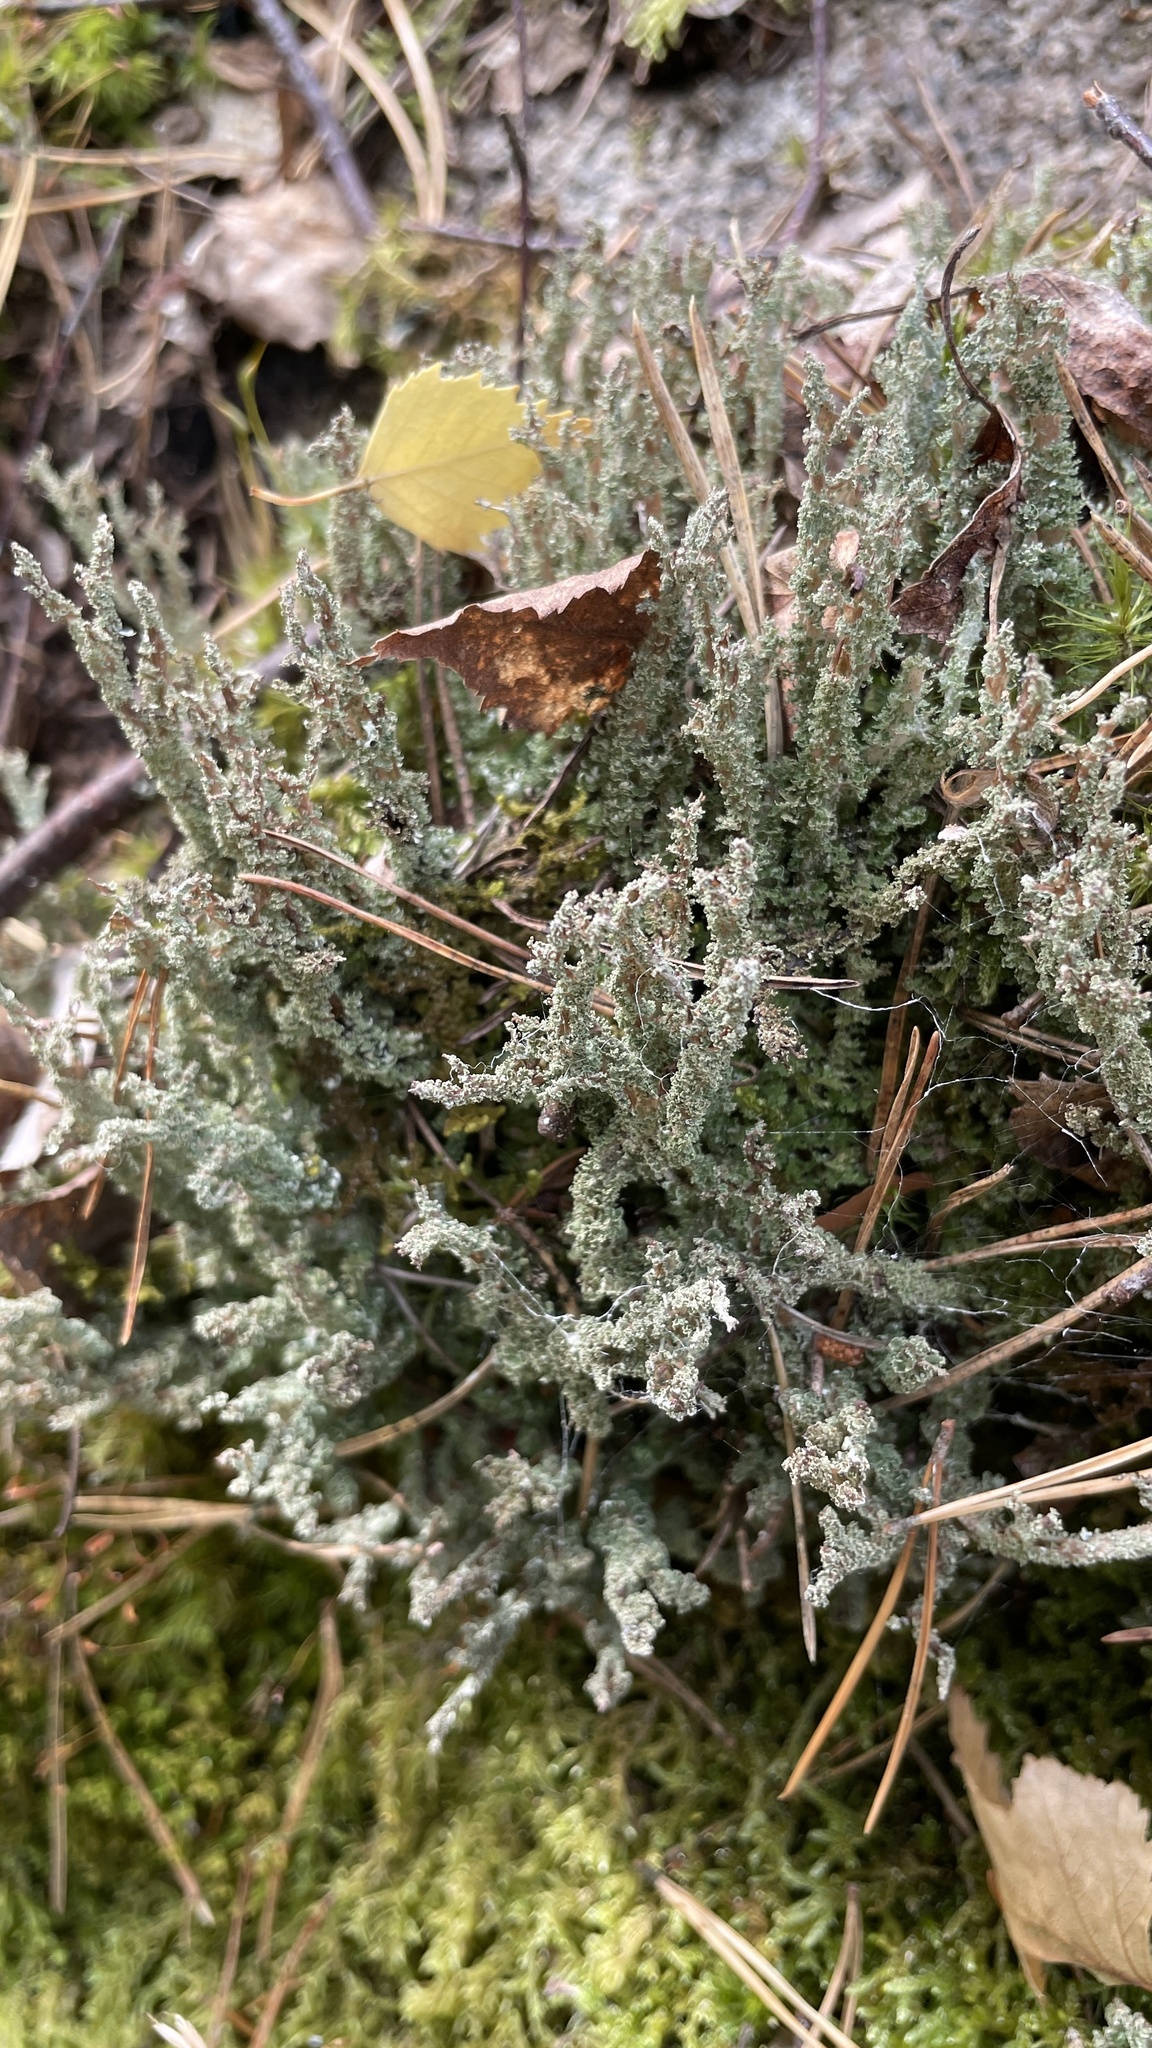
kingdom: Fungi
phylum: Ascomycota
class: Lecanoromycetes
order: Lecanorales
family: Cladoniaceae
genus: Cladonia
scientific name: Cladonia squamosa
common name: Dragon horn
